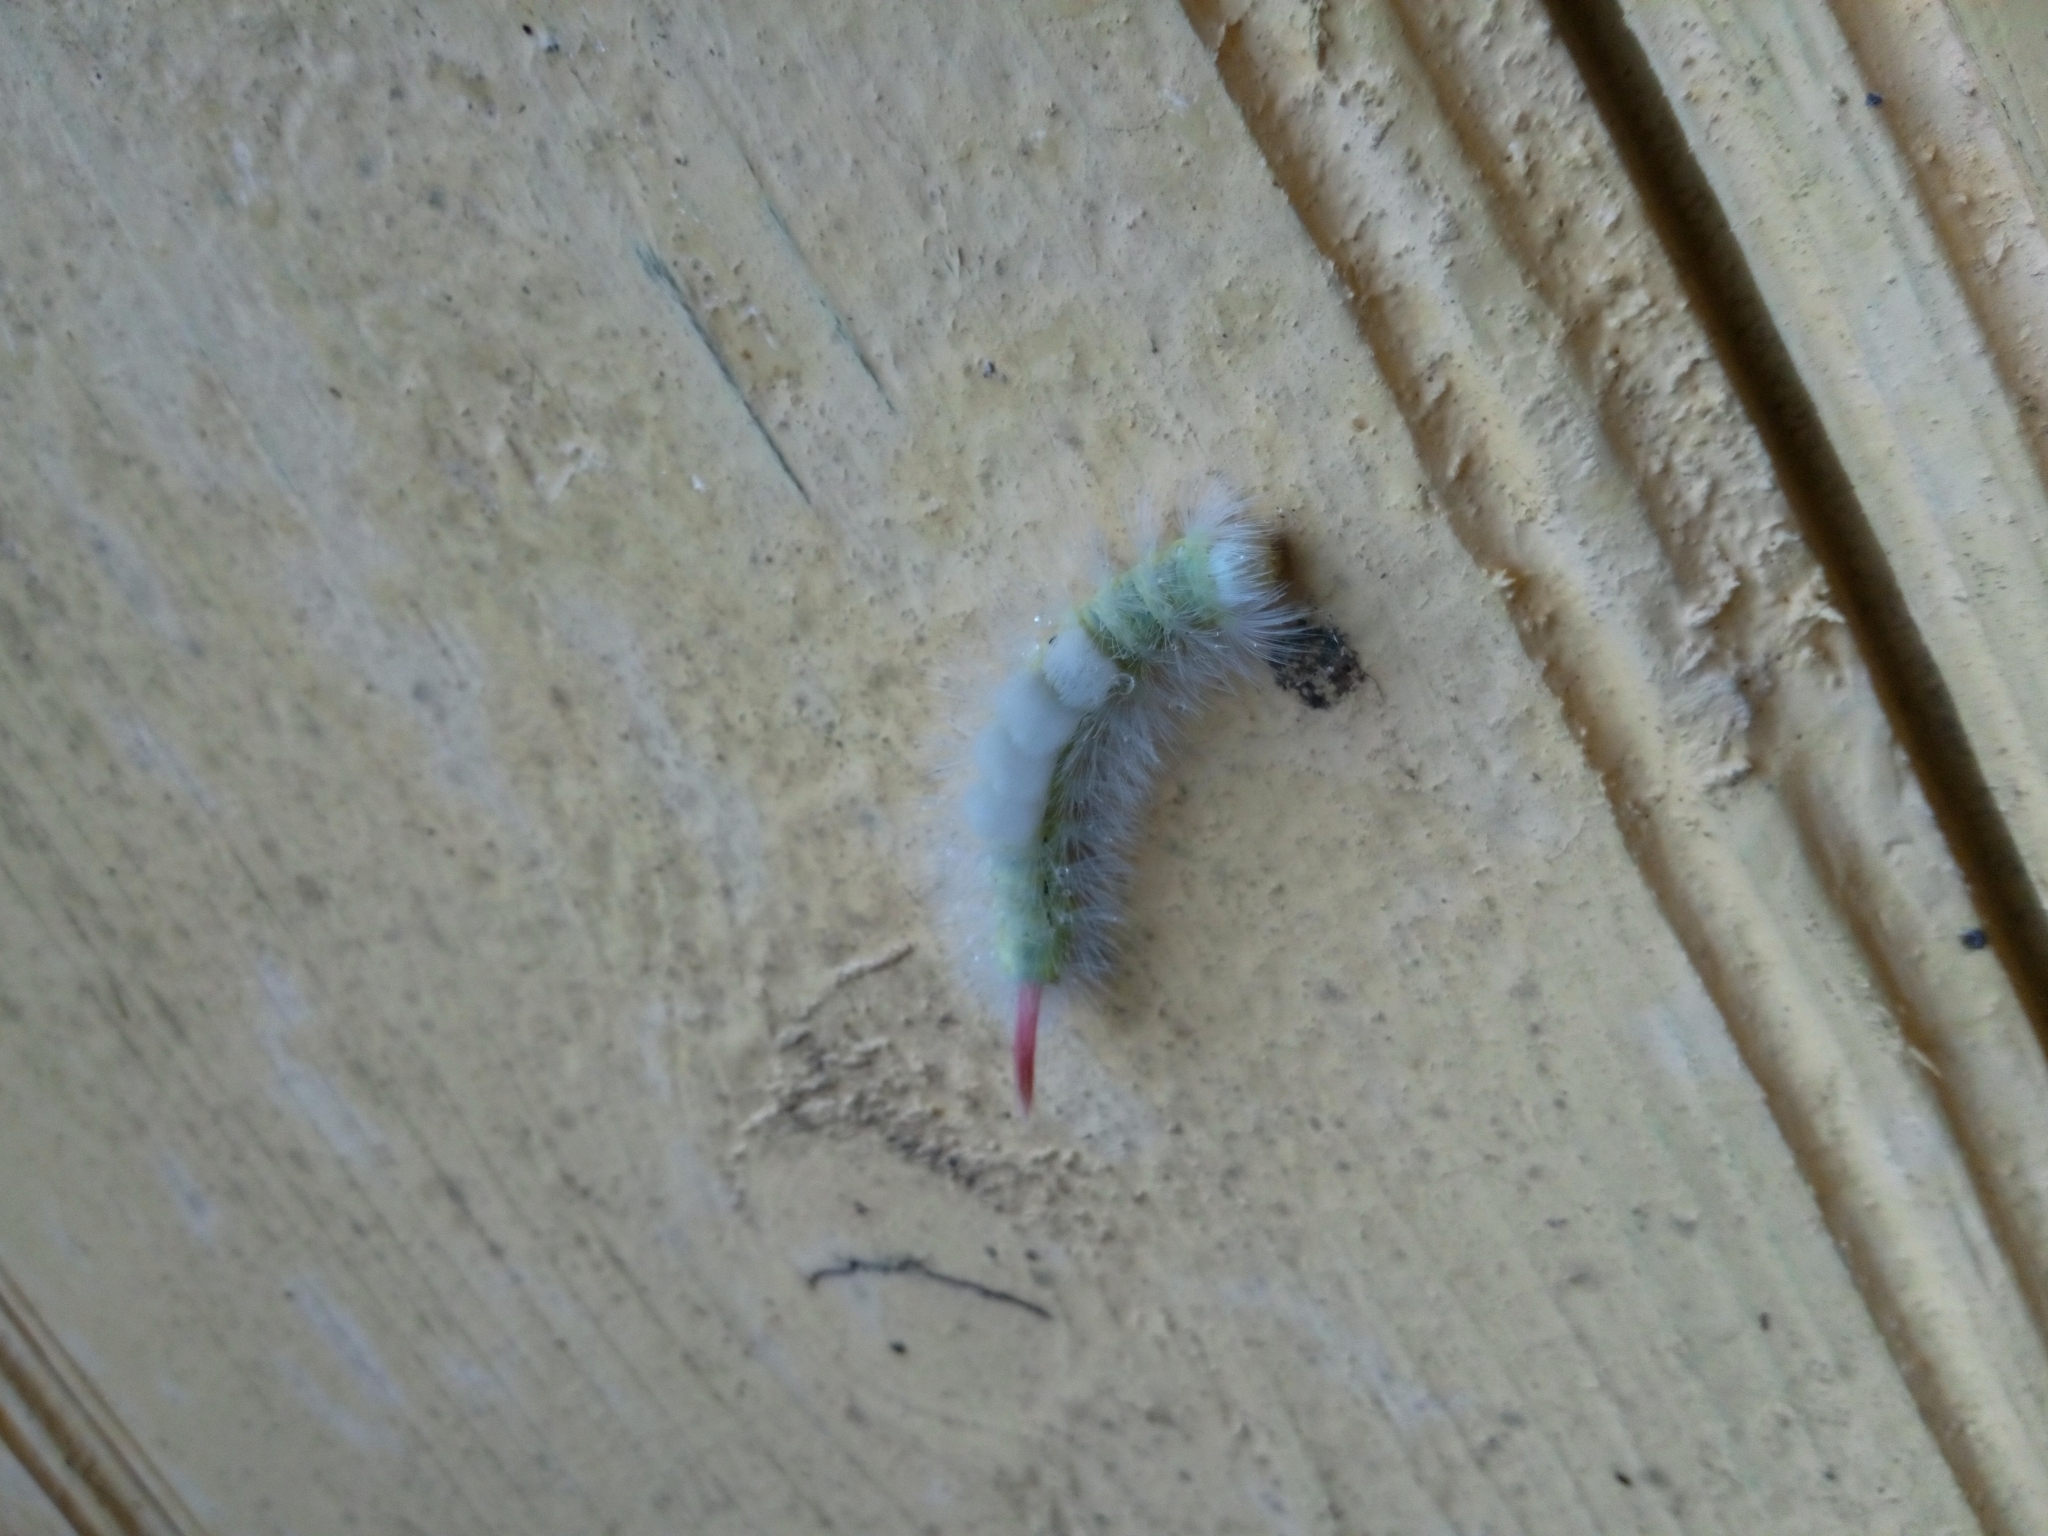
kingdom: Animalia
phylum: Arthropoda
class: Insecta
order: Lepidoptera
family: Erebidae
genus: Calliteara
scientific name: Calliteara pudibunda
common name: Pale tussock
